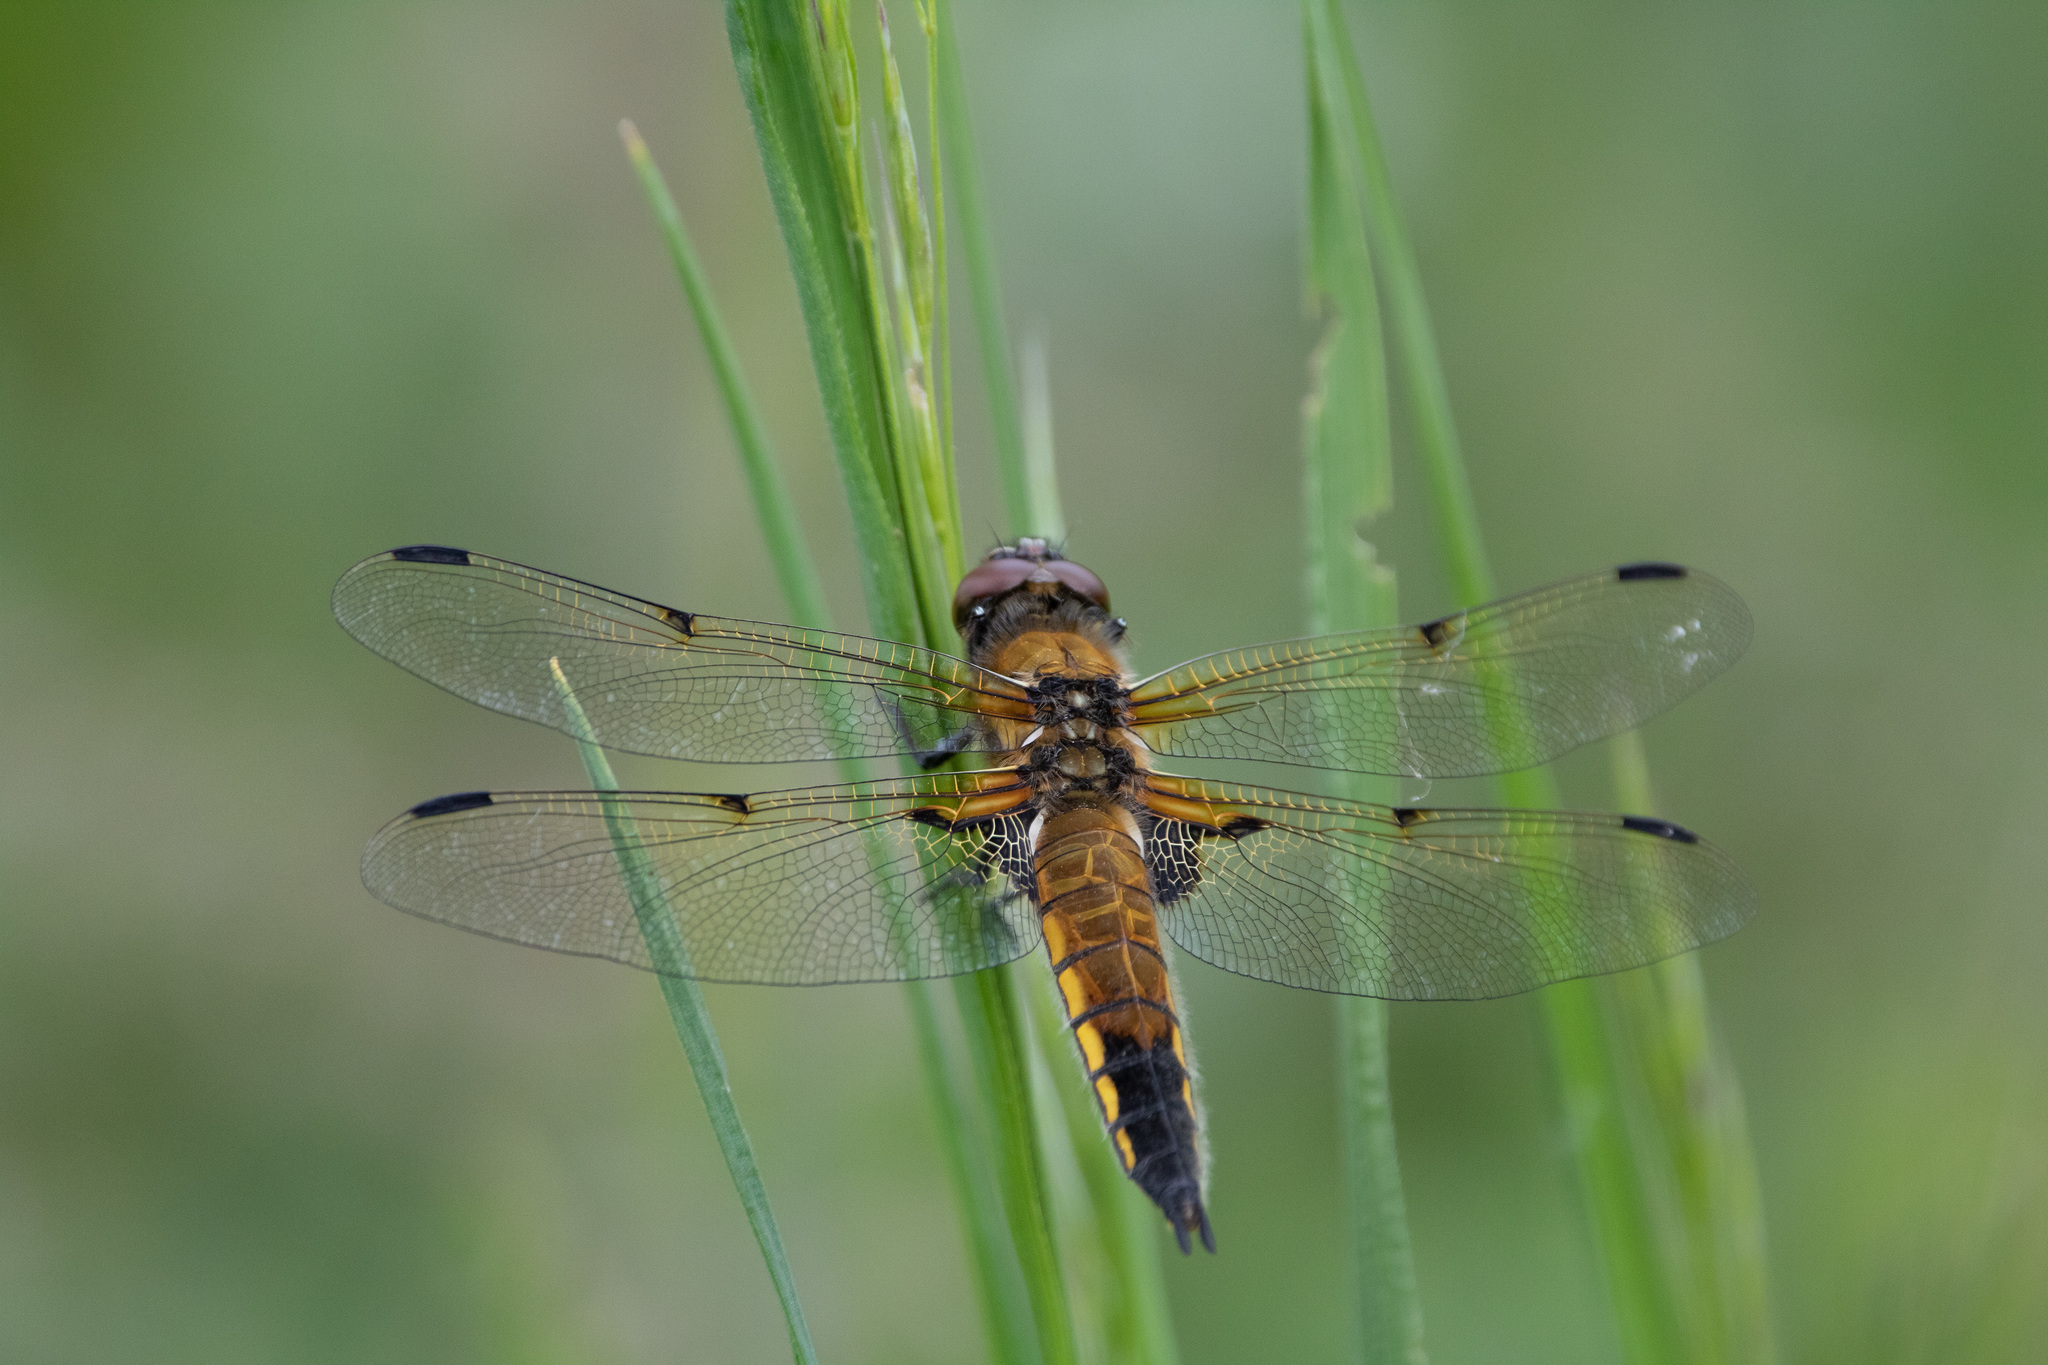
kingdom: Animalia
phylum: Arthropoda
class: Insecta
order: Odonata
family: Libellulidae
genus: Libellula
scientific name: Libellula quadrimaculata
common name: Four-spotted chaser
